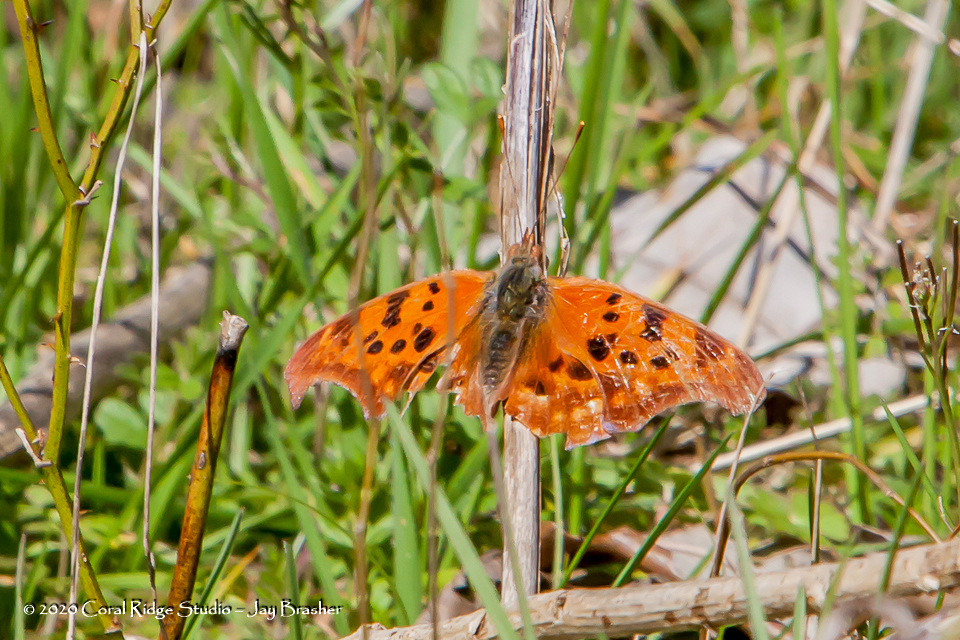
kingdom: Animalia
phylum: Arthropoda
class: Insecta
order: Lepidoptera
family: Nymphalidae
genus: Polygonia
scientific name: Polygonia interrogationis
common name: Question mark
